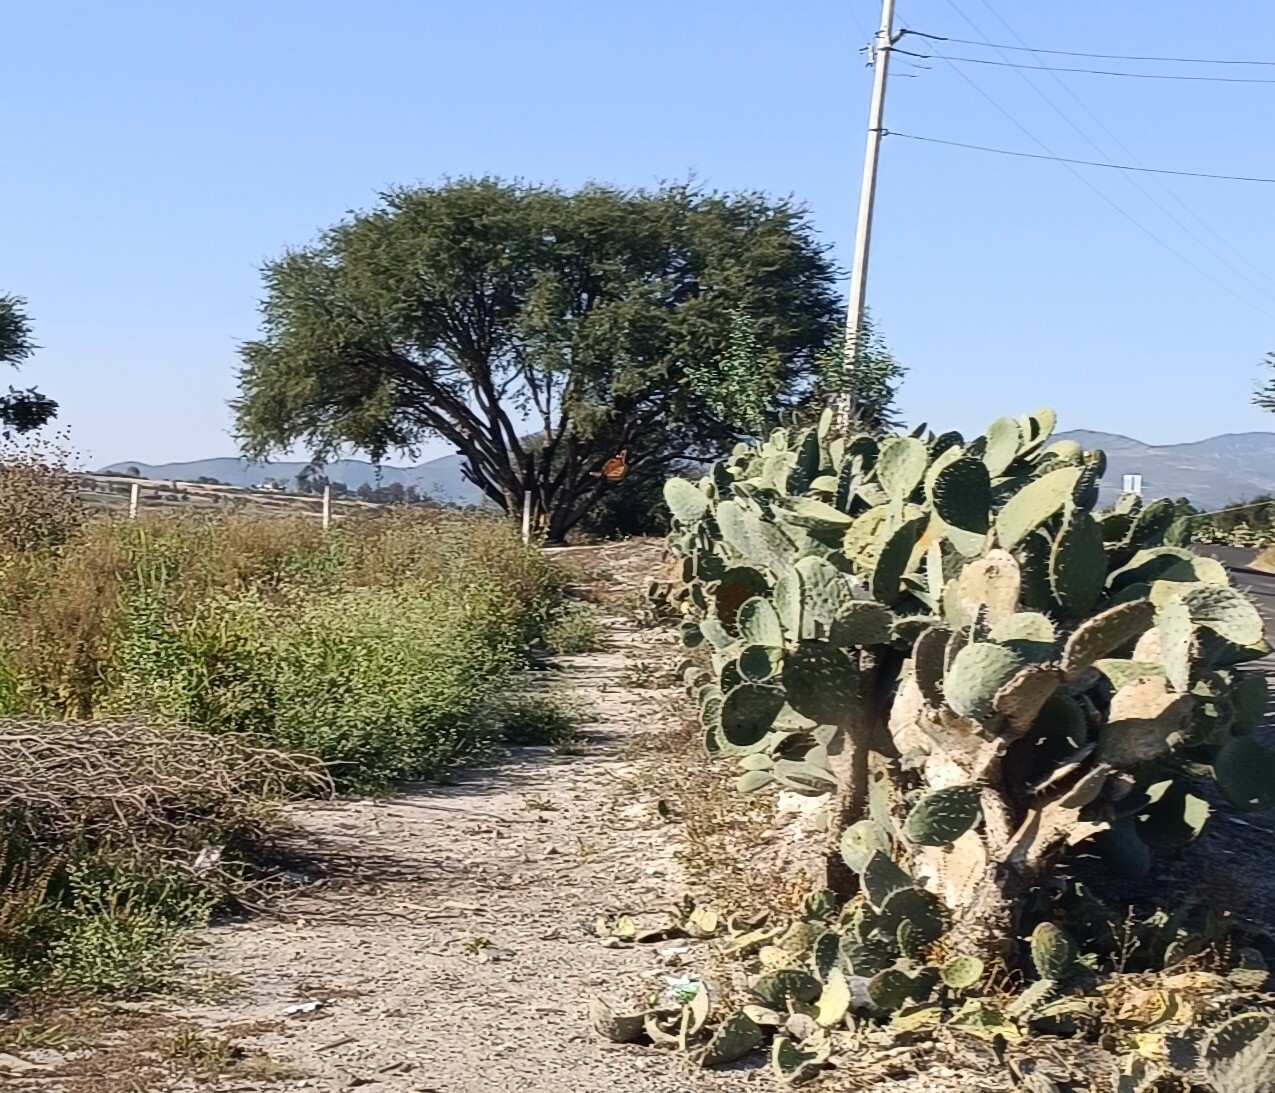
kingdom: Animalia
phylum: Arthropoda
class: Insecta
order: Lepidoptera
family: Nymphalidae
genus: Danaus
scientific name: Danaus plexippus
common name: Monarch
